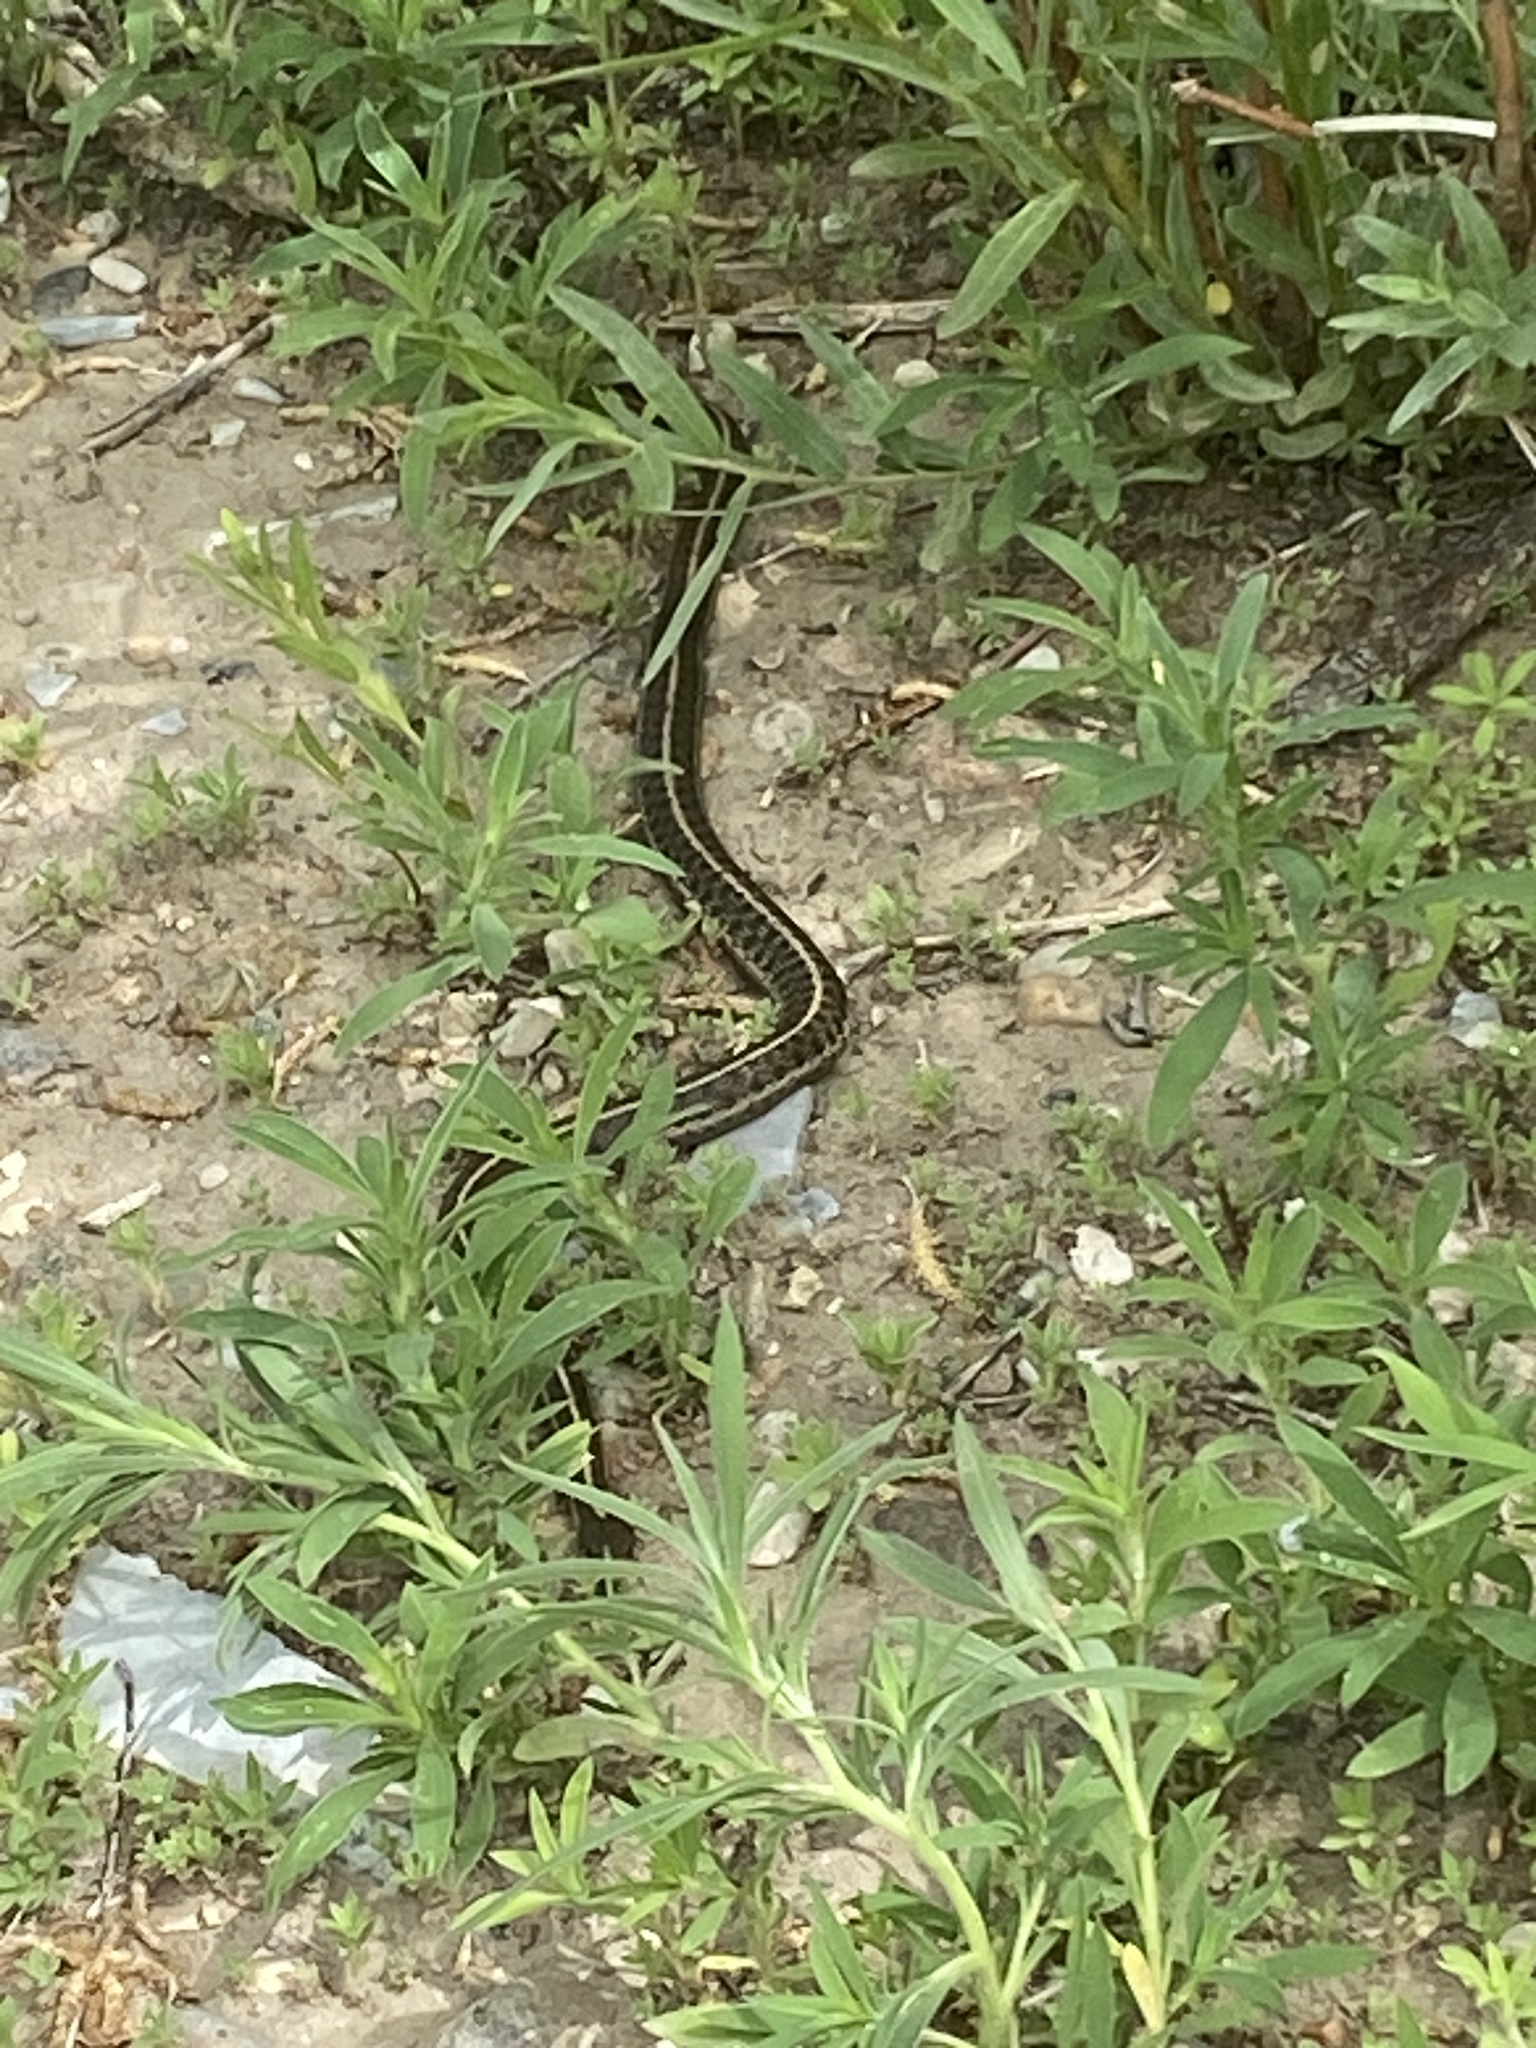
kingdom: Animalia
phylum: Chordata
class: Squamata
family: Colubridae
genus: Thamnophis
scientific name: Thamnophis elegans
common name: Western terrestrial garter snake
